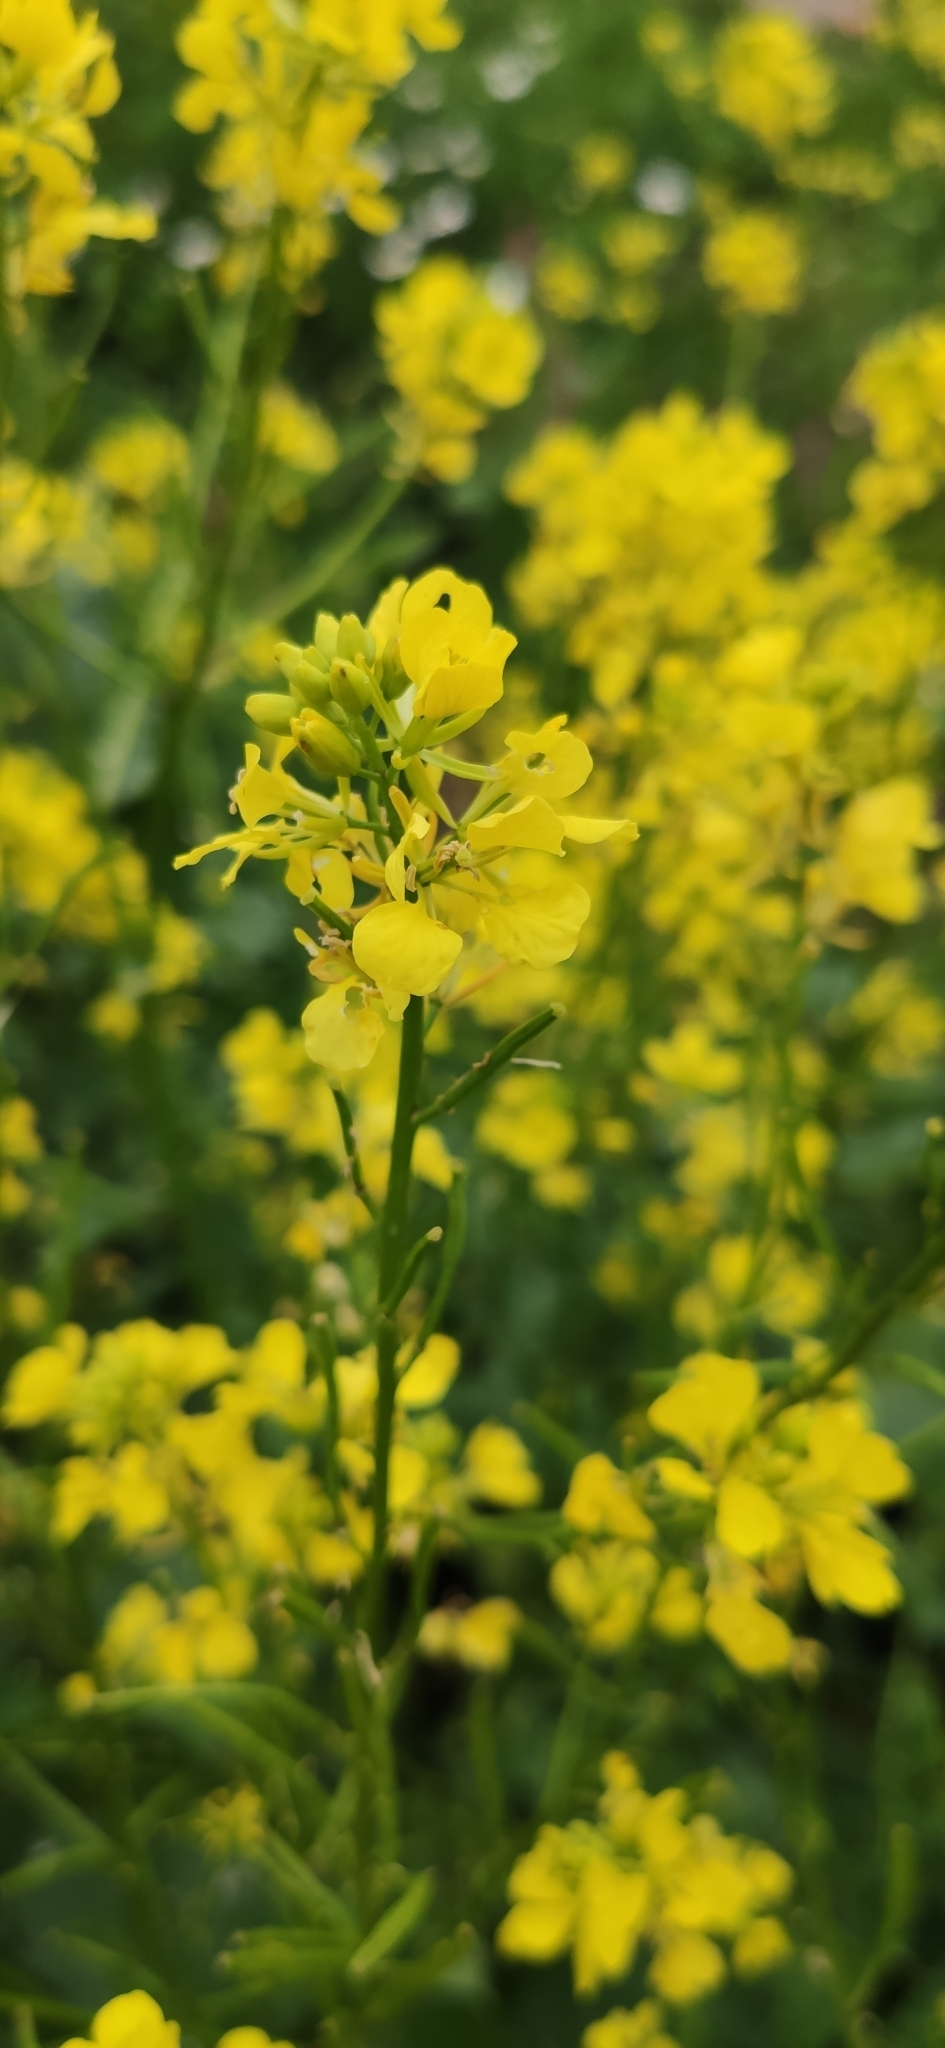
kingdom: Plantae
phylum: Tracheophyta
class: Magnoliopsida
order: Brassicales
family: Brassicaceae
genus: Sinapis
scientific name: Sinapis arvensis
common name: Charlock
